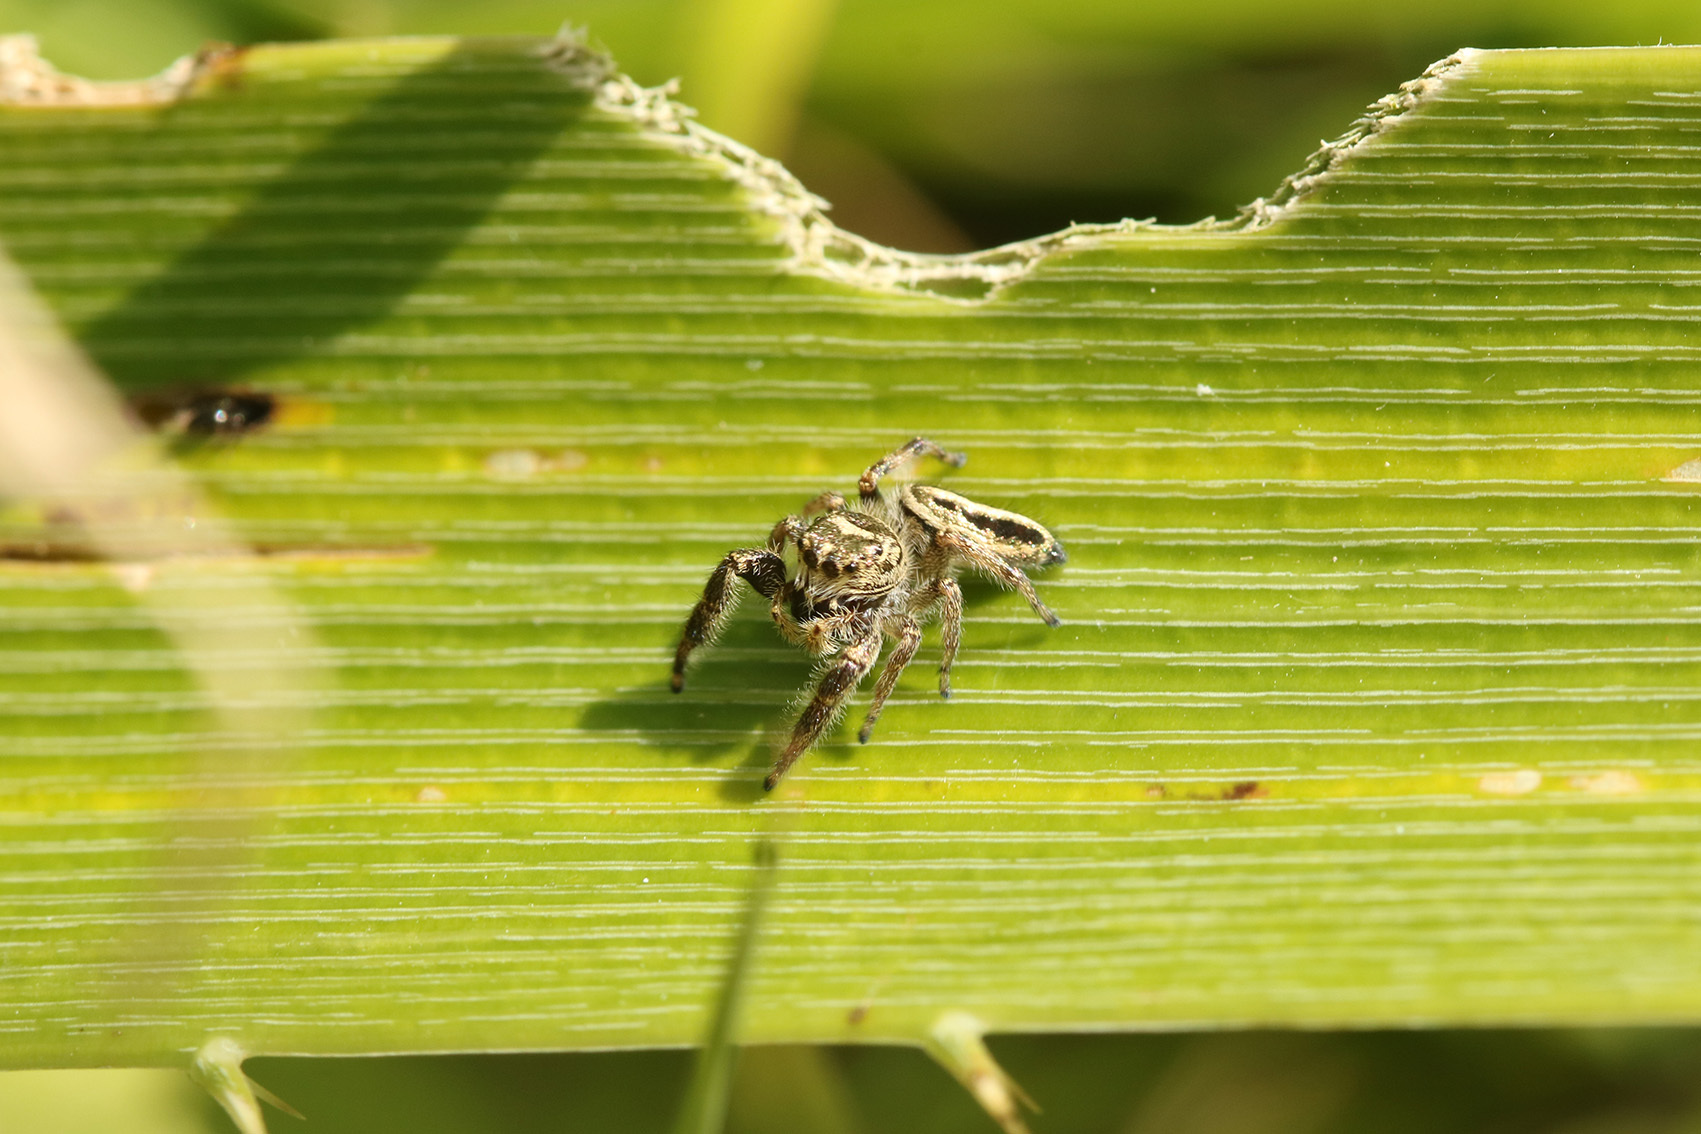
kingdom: Animalia
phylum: Arthropoda
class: Arachnida
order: Araneae
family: Salticidae
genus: Dendryphantes
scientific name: Dendryphantes mordax
